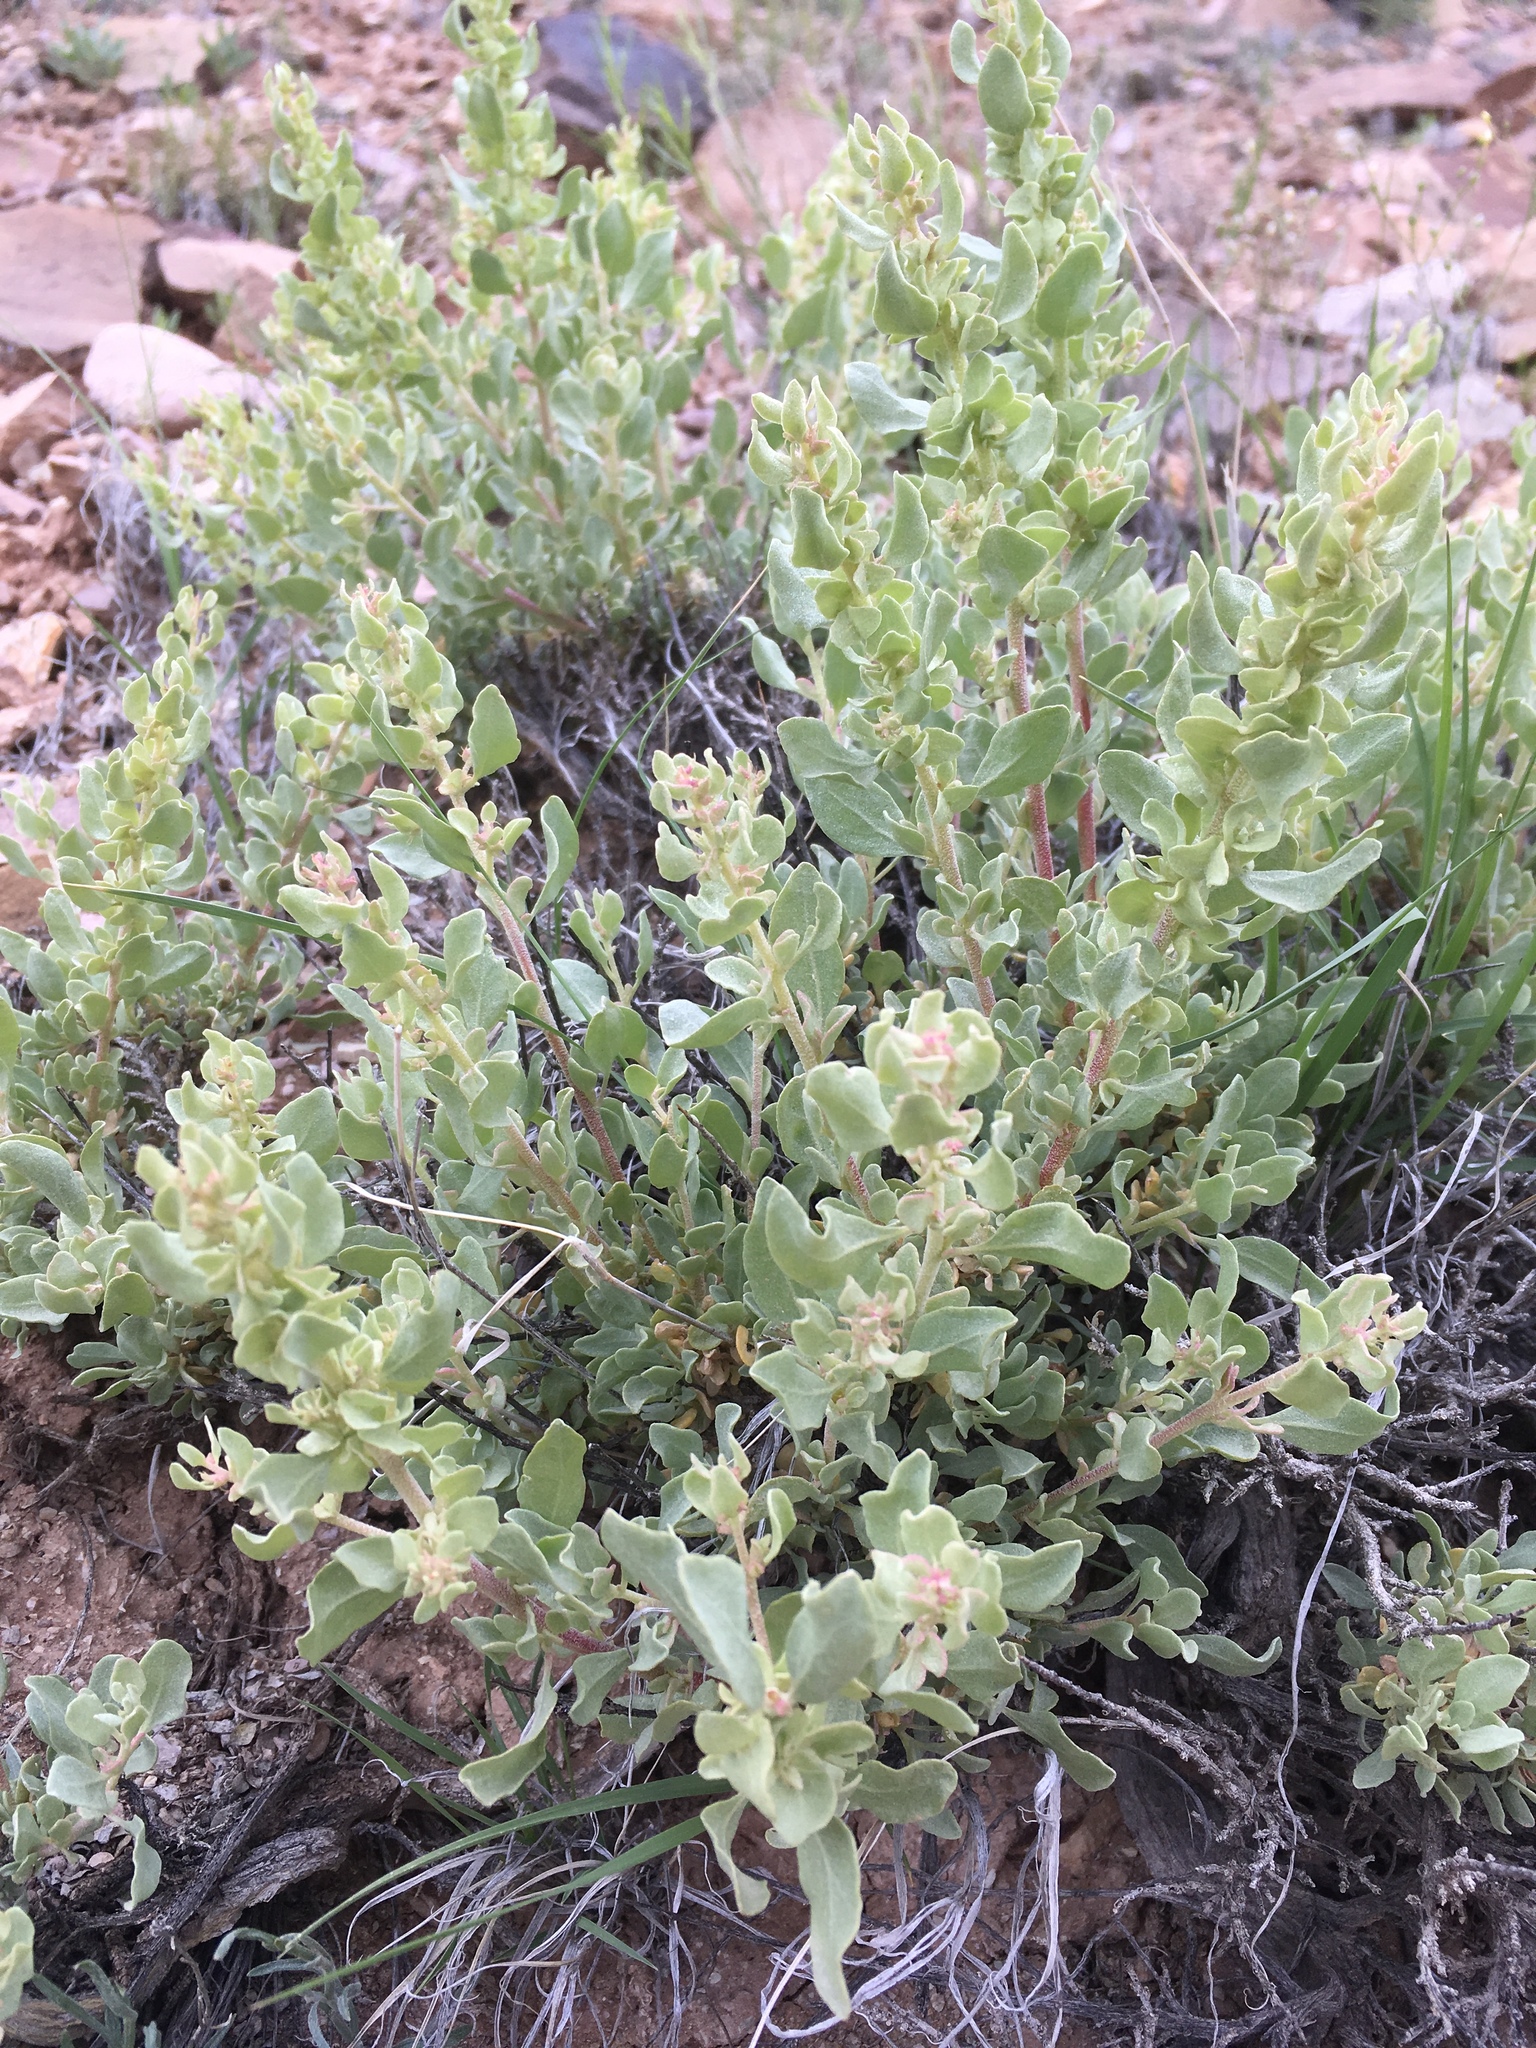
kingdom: Plantae
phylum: Tracheophyta
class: Magnoliopsida
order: Caryophyllales
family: Amaranthaceae
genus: Atriplex
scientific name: Atriplex confertifolia
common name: Shadscale
